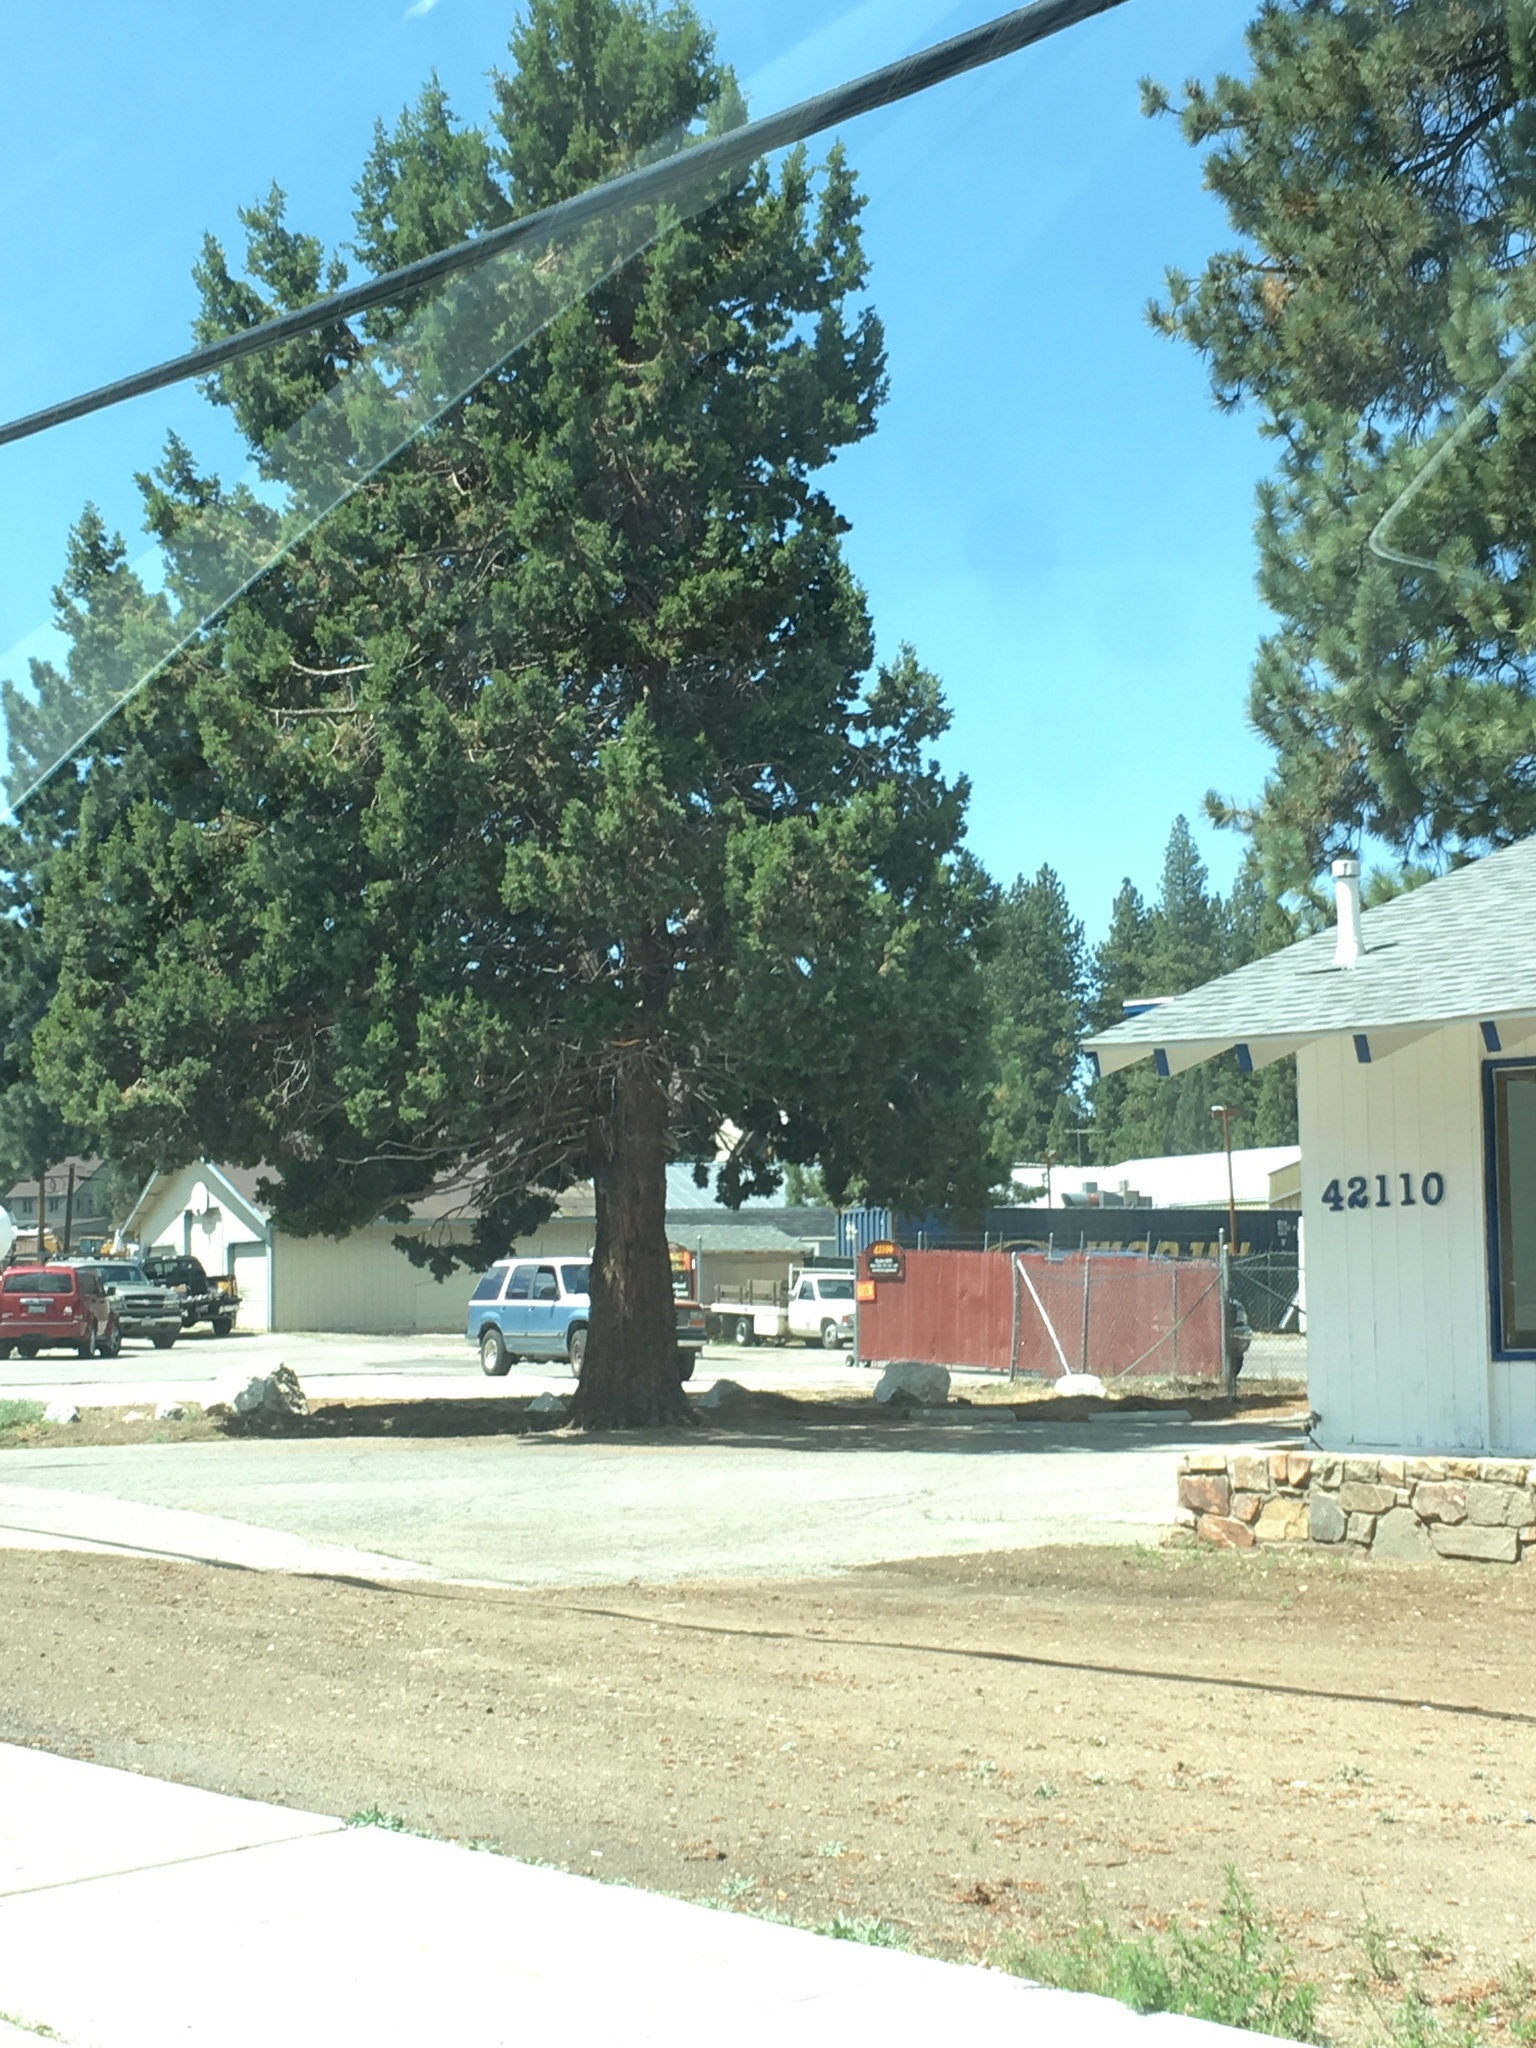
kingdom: Plantae
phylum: Tracheophyta
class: Pinopsida
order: Pinales
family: Cupressaceae
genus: Juniperus
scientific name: Juniperus occidentalis
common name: Western juniper
